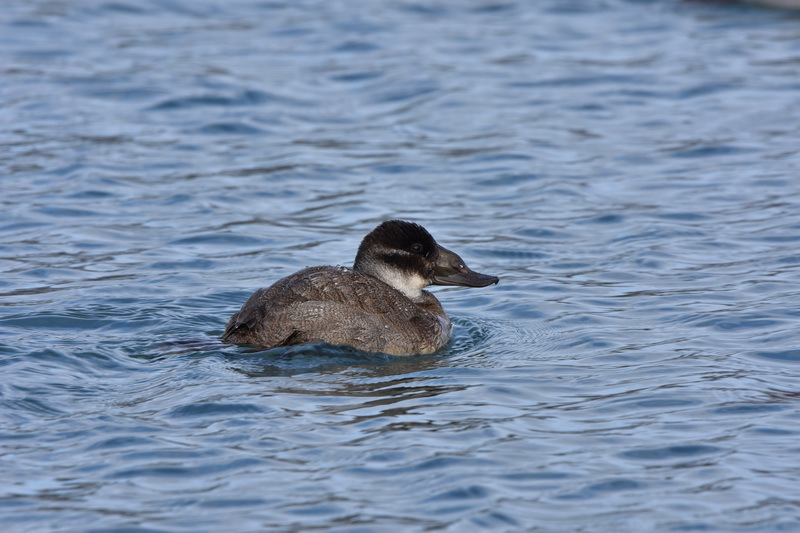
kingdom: Animalia
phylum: Chordata
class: Aves
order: Anseriformes
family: Anatidae
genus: Oxyura
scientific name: Oxyura leucocephala
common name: White-headed duck
